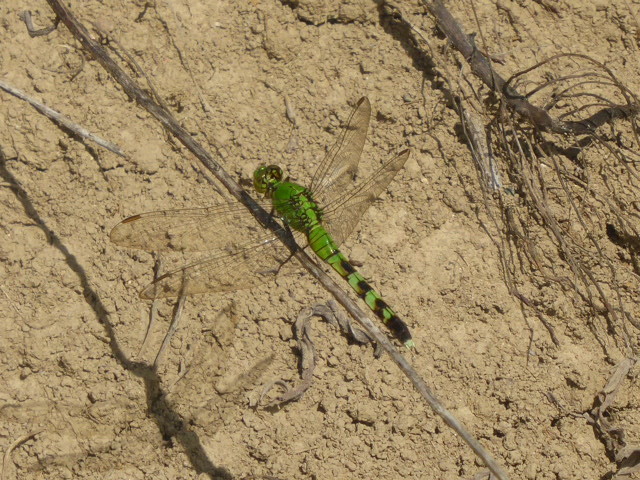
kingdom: Animalia
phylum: Arthropoda
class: Insecta
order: Odonata
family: Libellulidae
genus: Erythemis
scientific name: Erythemis simplicicollis
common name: Eastern pondhawk
